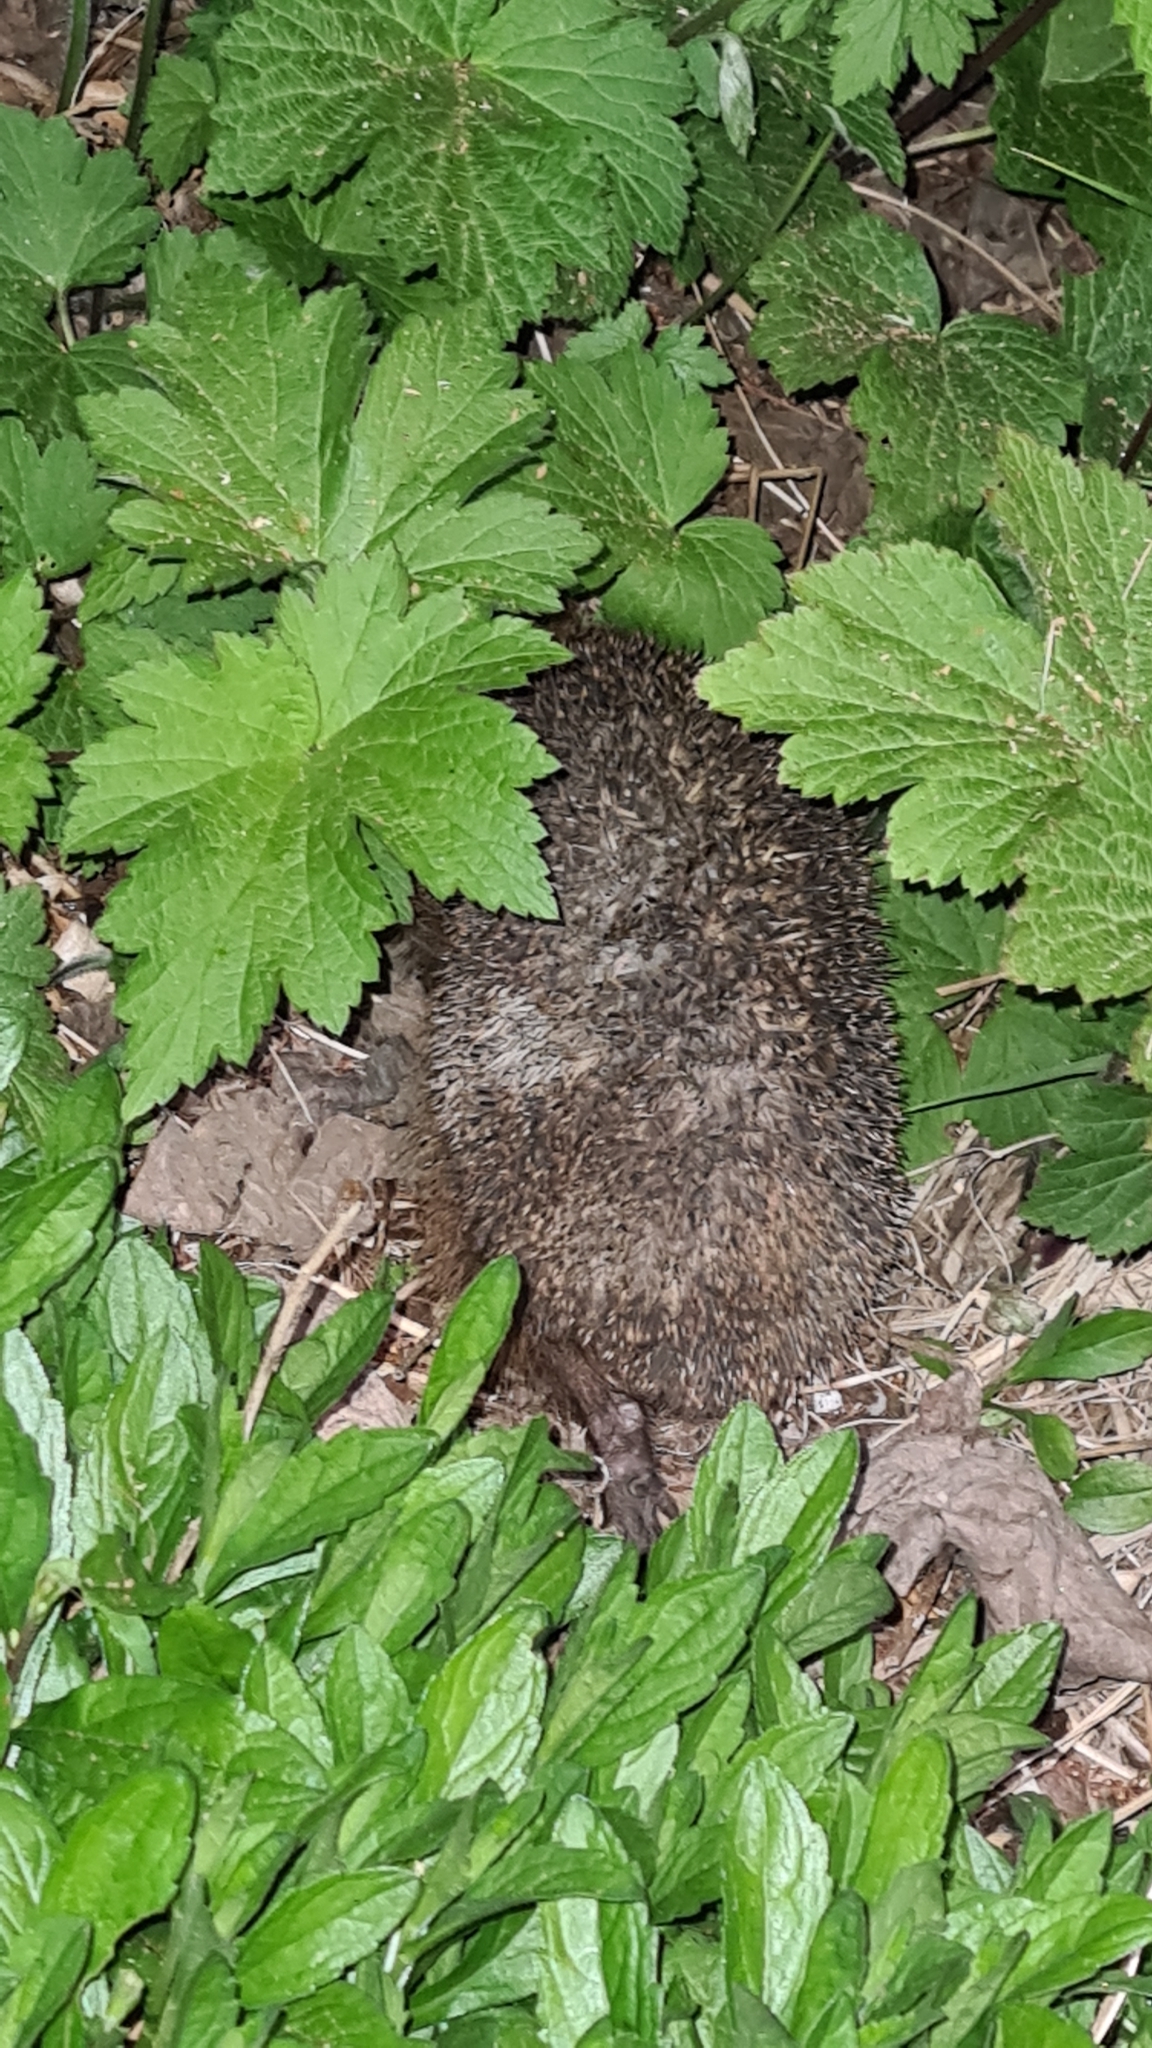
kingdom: Animalia
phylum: Chordata
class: Mammalia
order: Erinaceomorpha
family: Erinaceidae
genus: Erinaceus
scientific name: Erinaceus europaeus
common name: West european hedgehog
